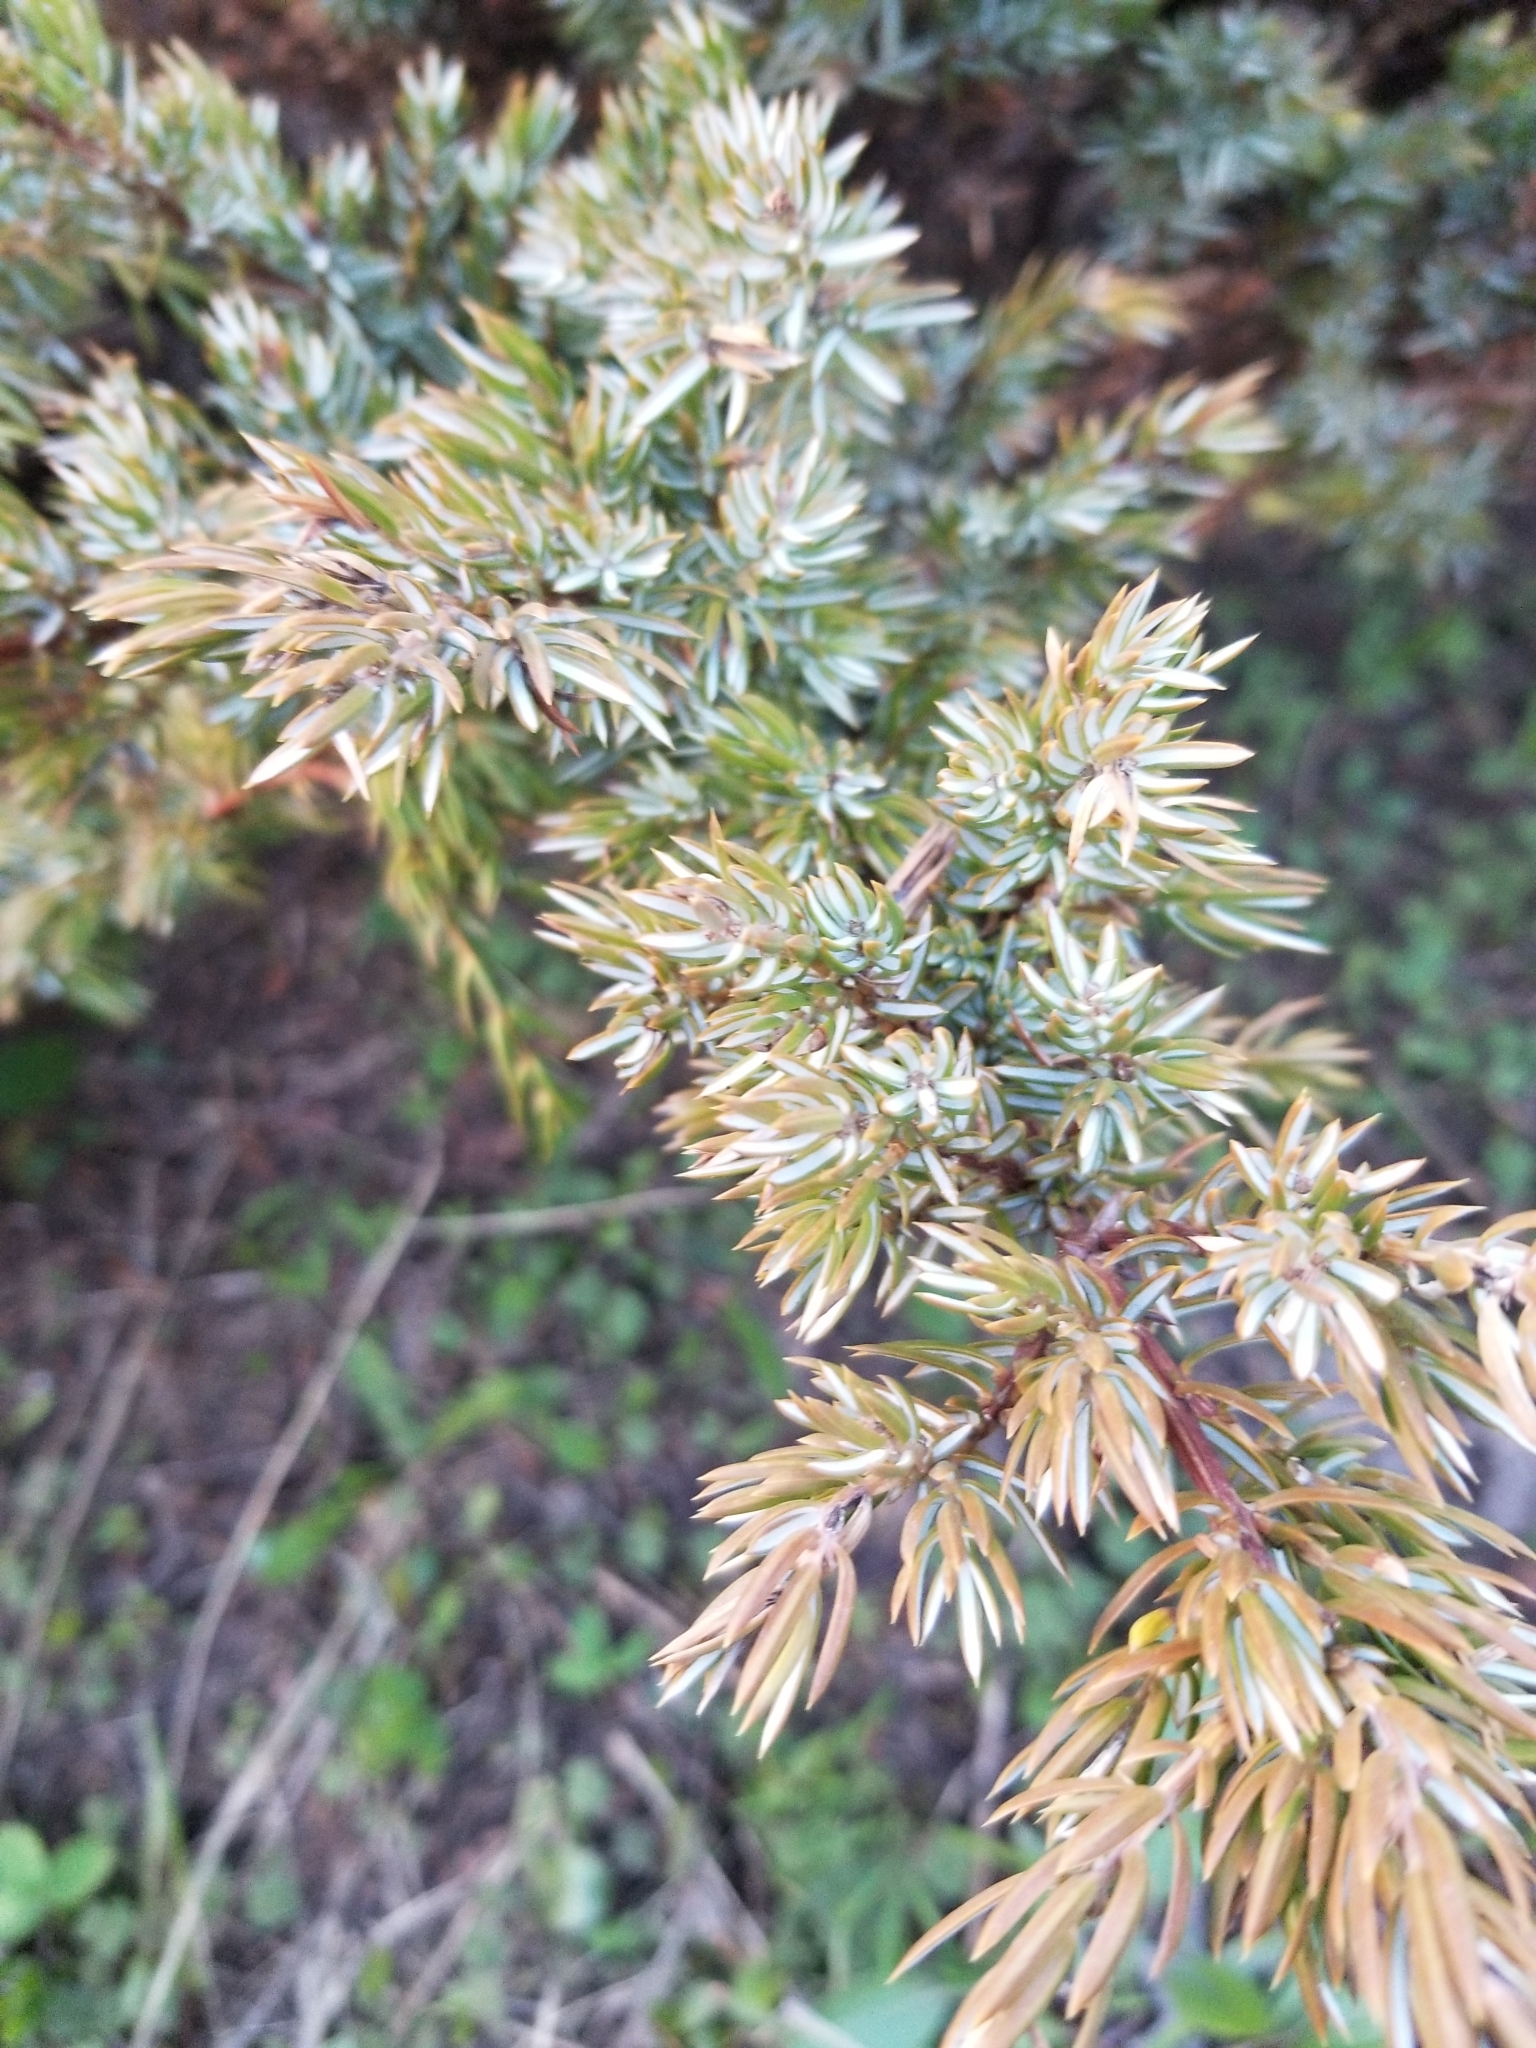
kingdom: Plantae
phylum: Tracheophyta
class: Pinopsida
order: Pinales
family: Cupressaceae
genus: Juniperus
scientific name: Juniperus communis
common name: Common juniper
